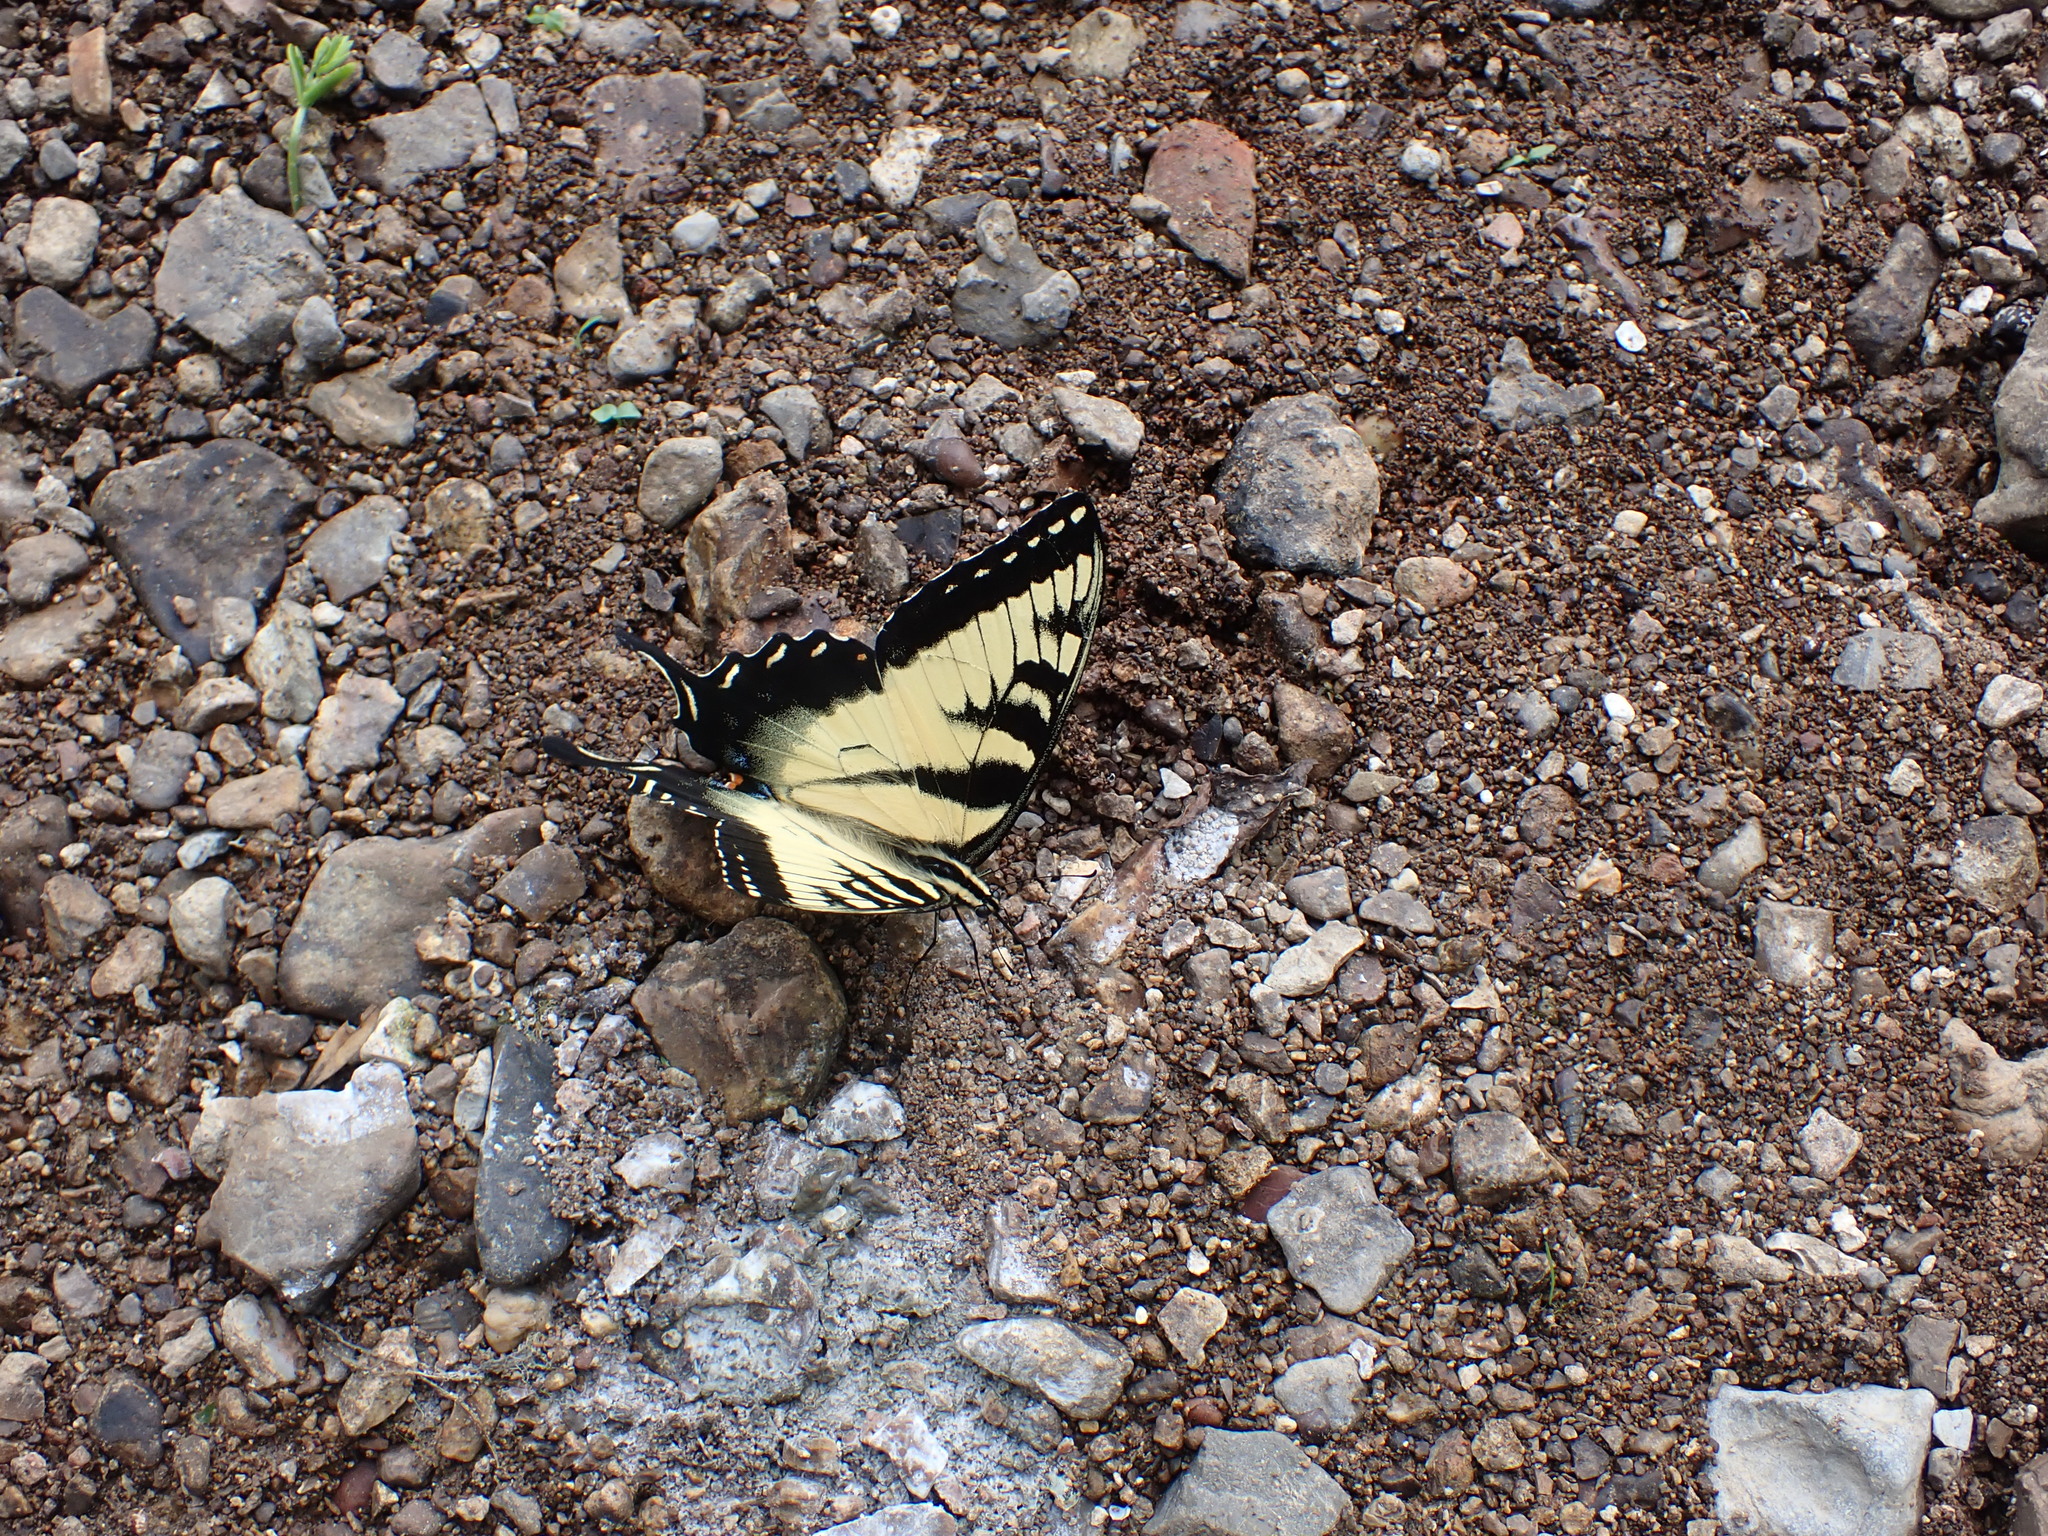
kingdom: Animalia
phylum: Arthropoda
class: Insecta
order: Lepidoptera
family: Papilionidae
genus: Papilio
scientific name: Papilio glaucus
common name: Tiger swallowtail
